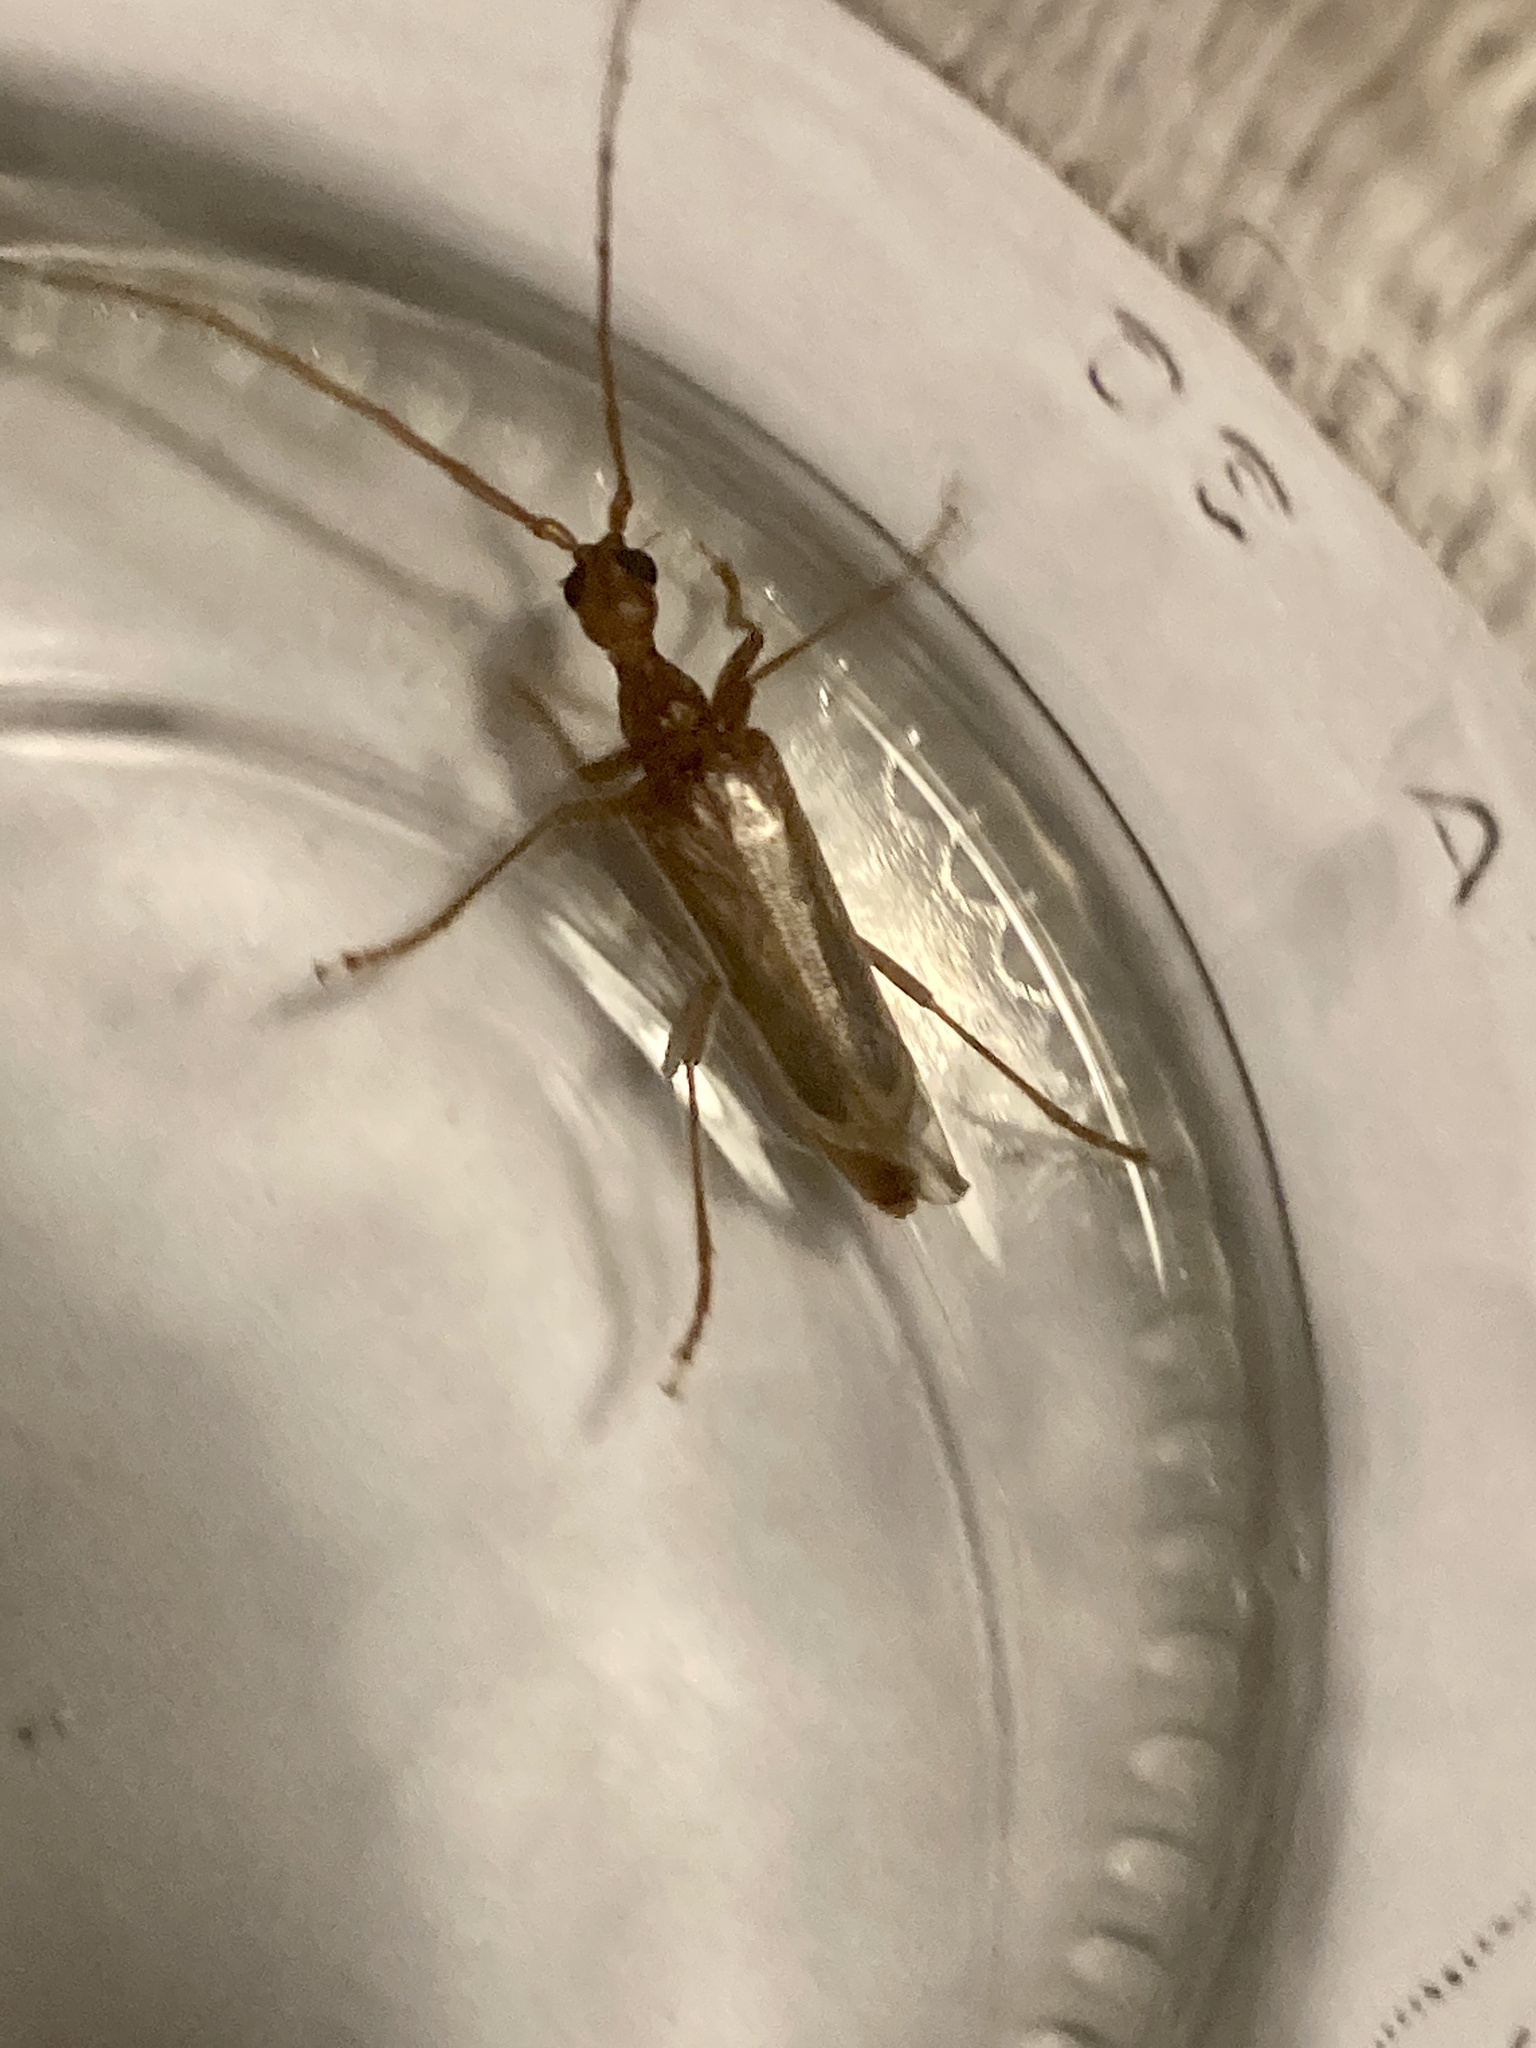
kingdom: Animalia
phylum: Arthropoda
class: Insecta
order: Coleoptera
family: Cerambycidae
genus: Vesperus
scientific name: Vesperus luridus
